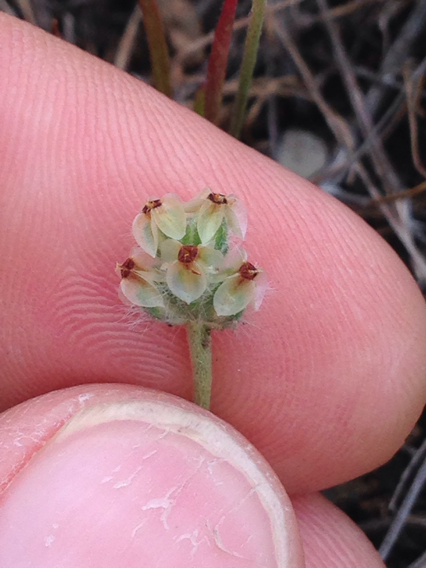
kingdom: Plantae
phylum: Tracheophyta
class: Magnoliopsida
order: Lamiales
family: Plantaginaceae
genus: Plantago
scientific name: Plantago erecta
